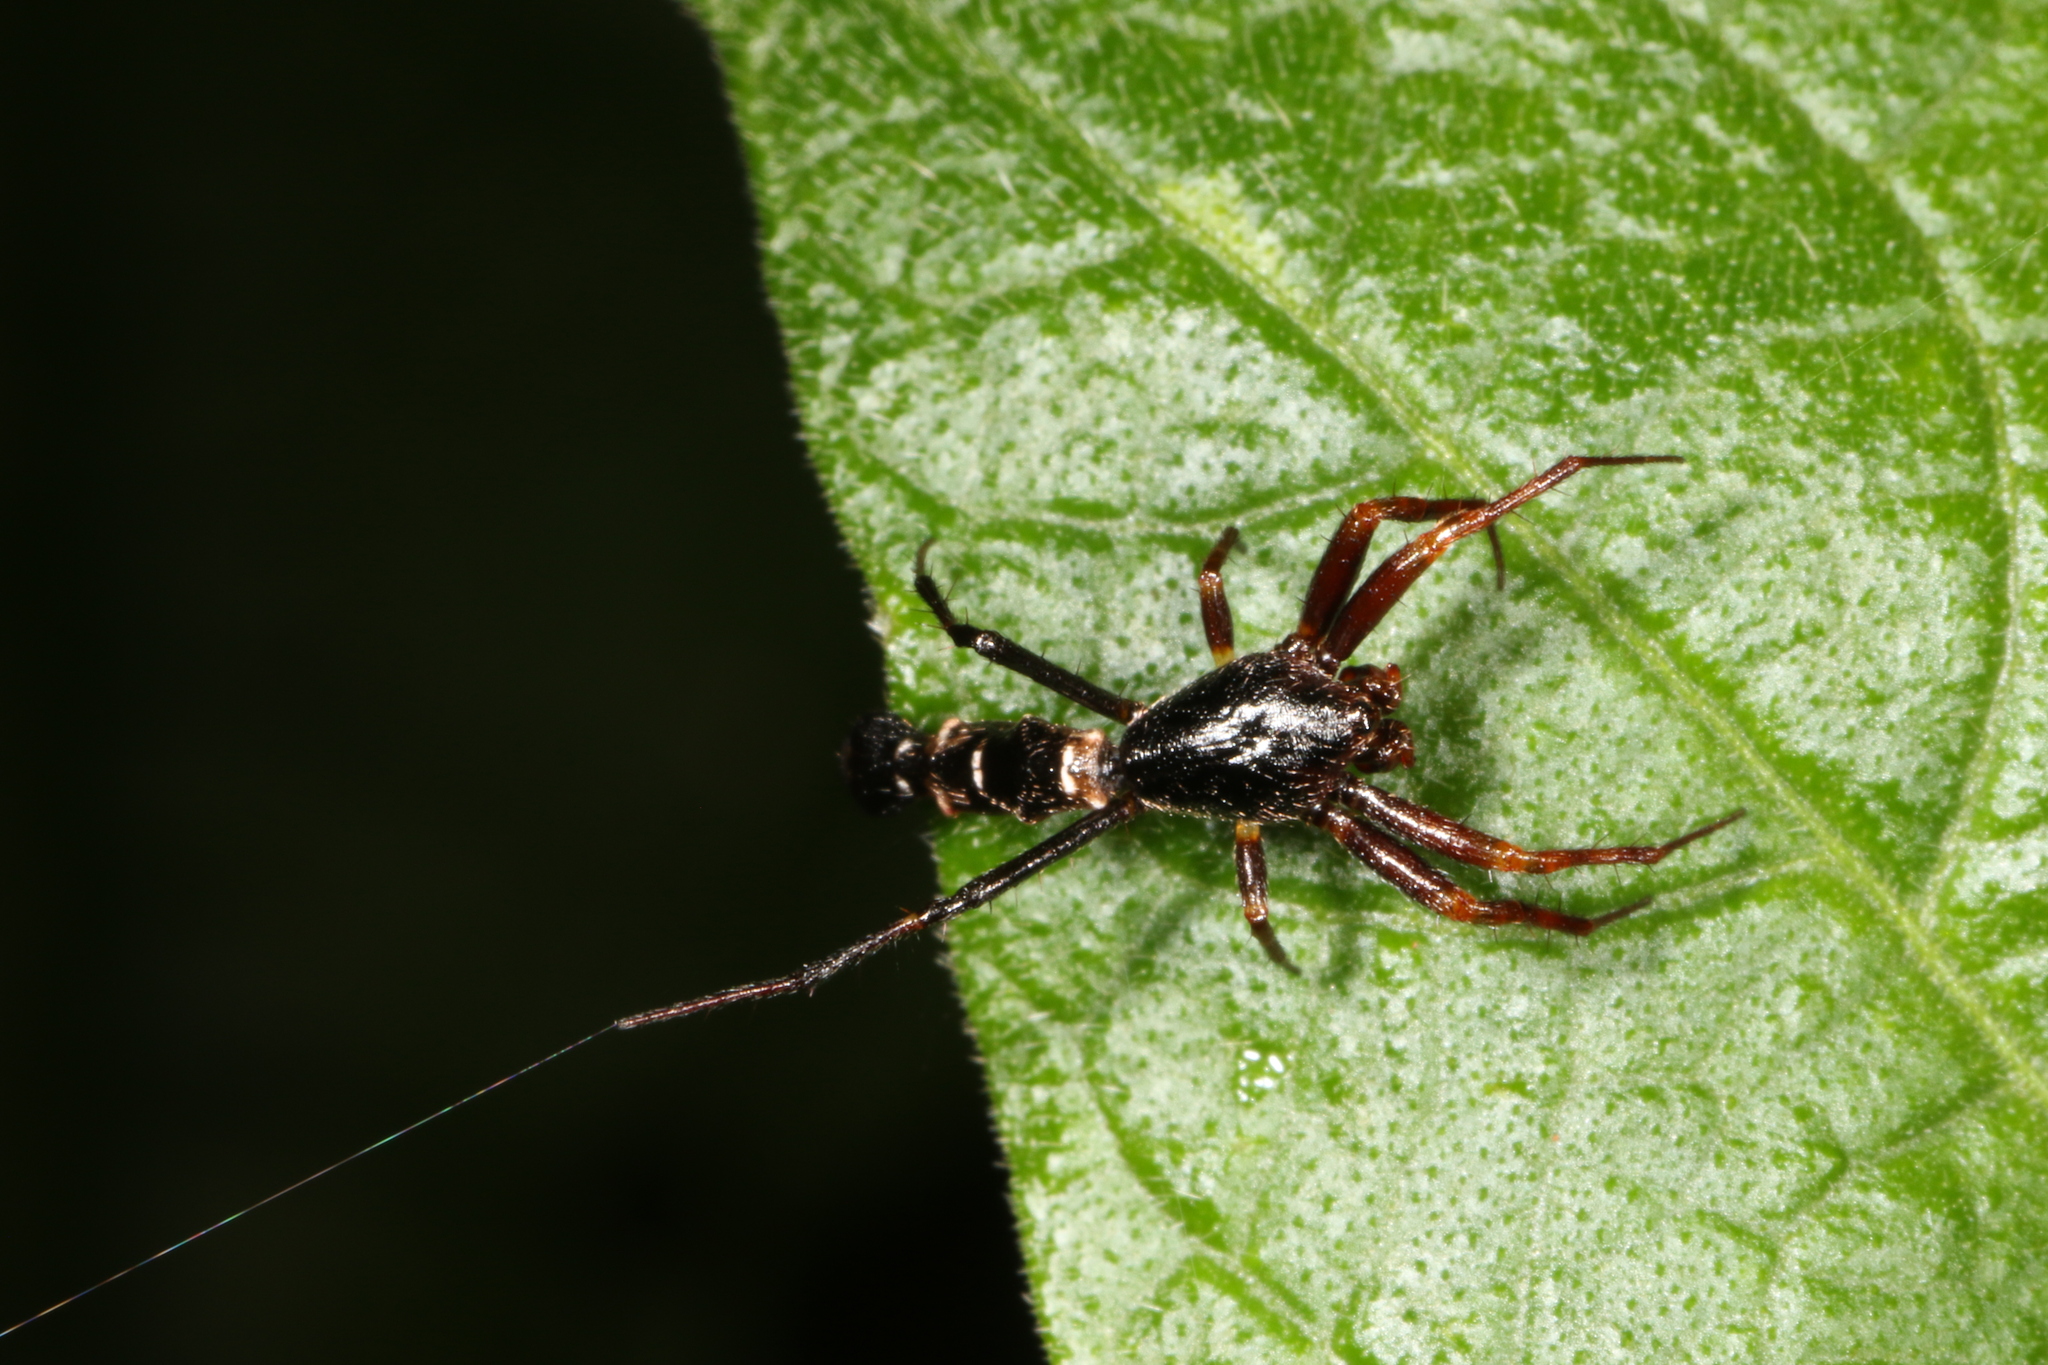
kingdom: Animalia
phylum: Arthropoda
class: Arachnida
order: Araneae
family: Araneidae
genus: Micrathena
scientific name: Micrathena spitzi
